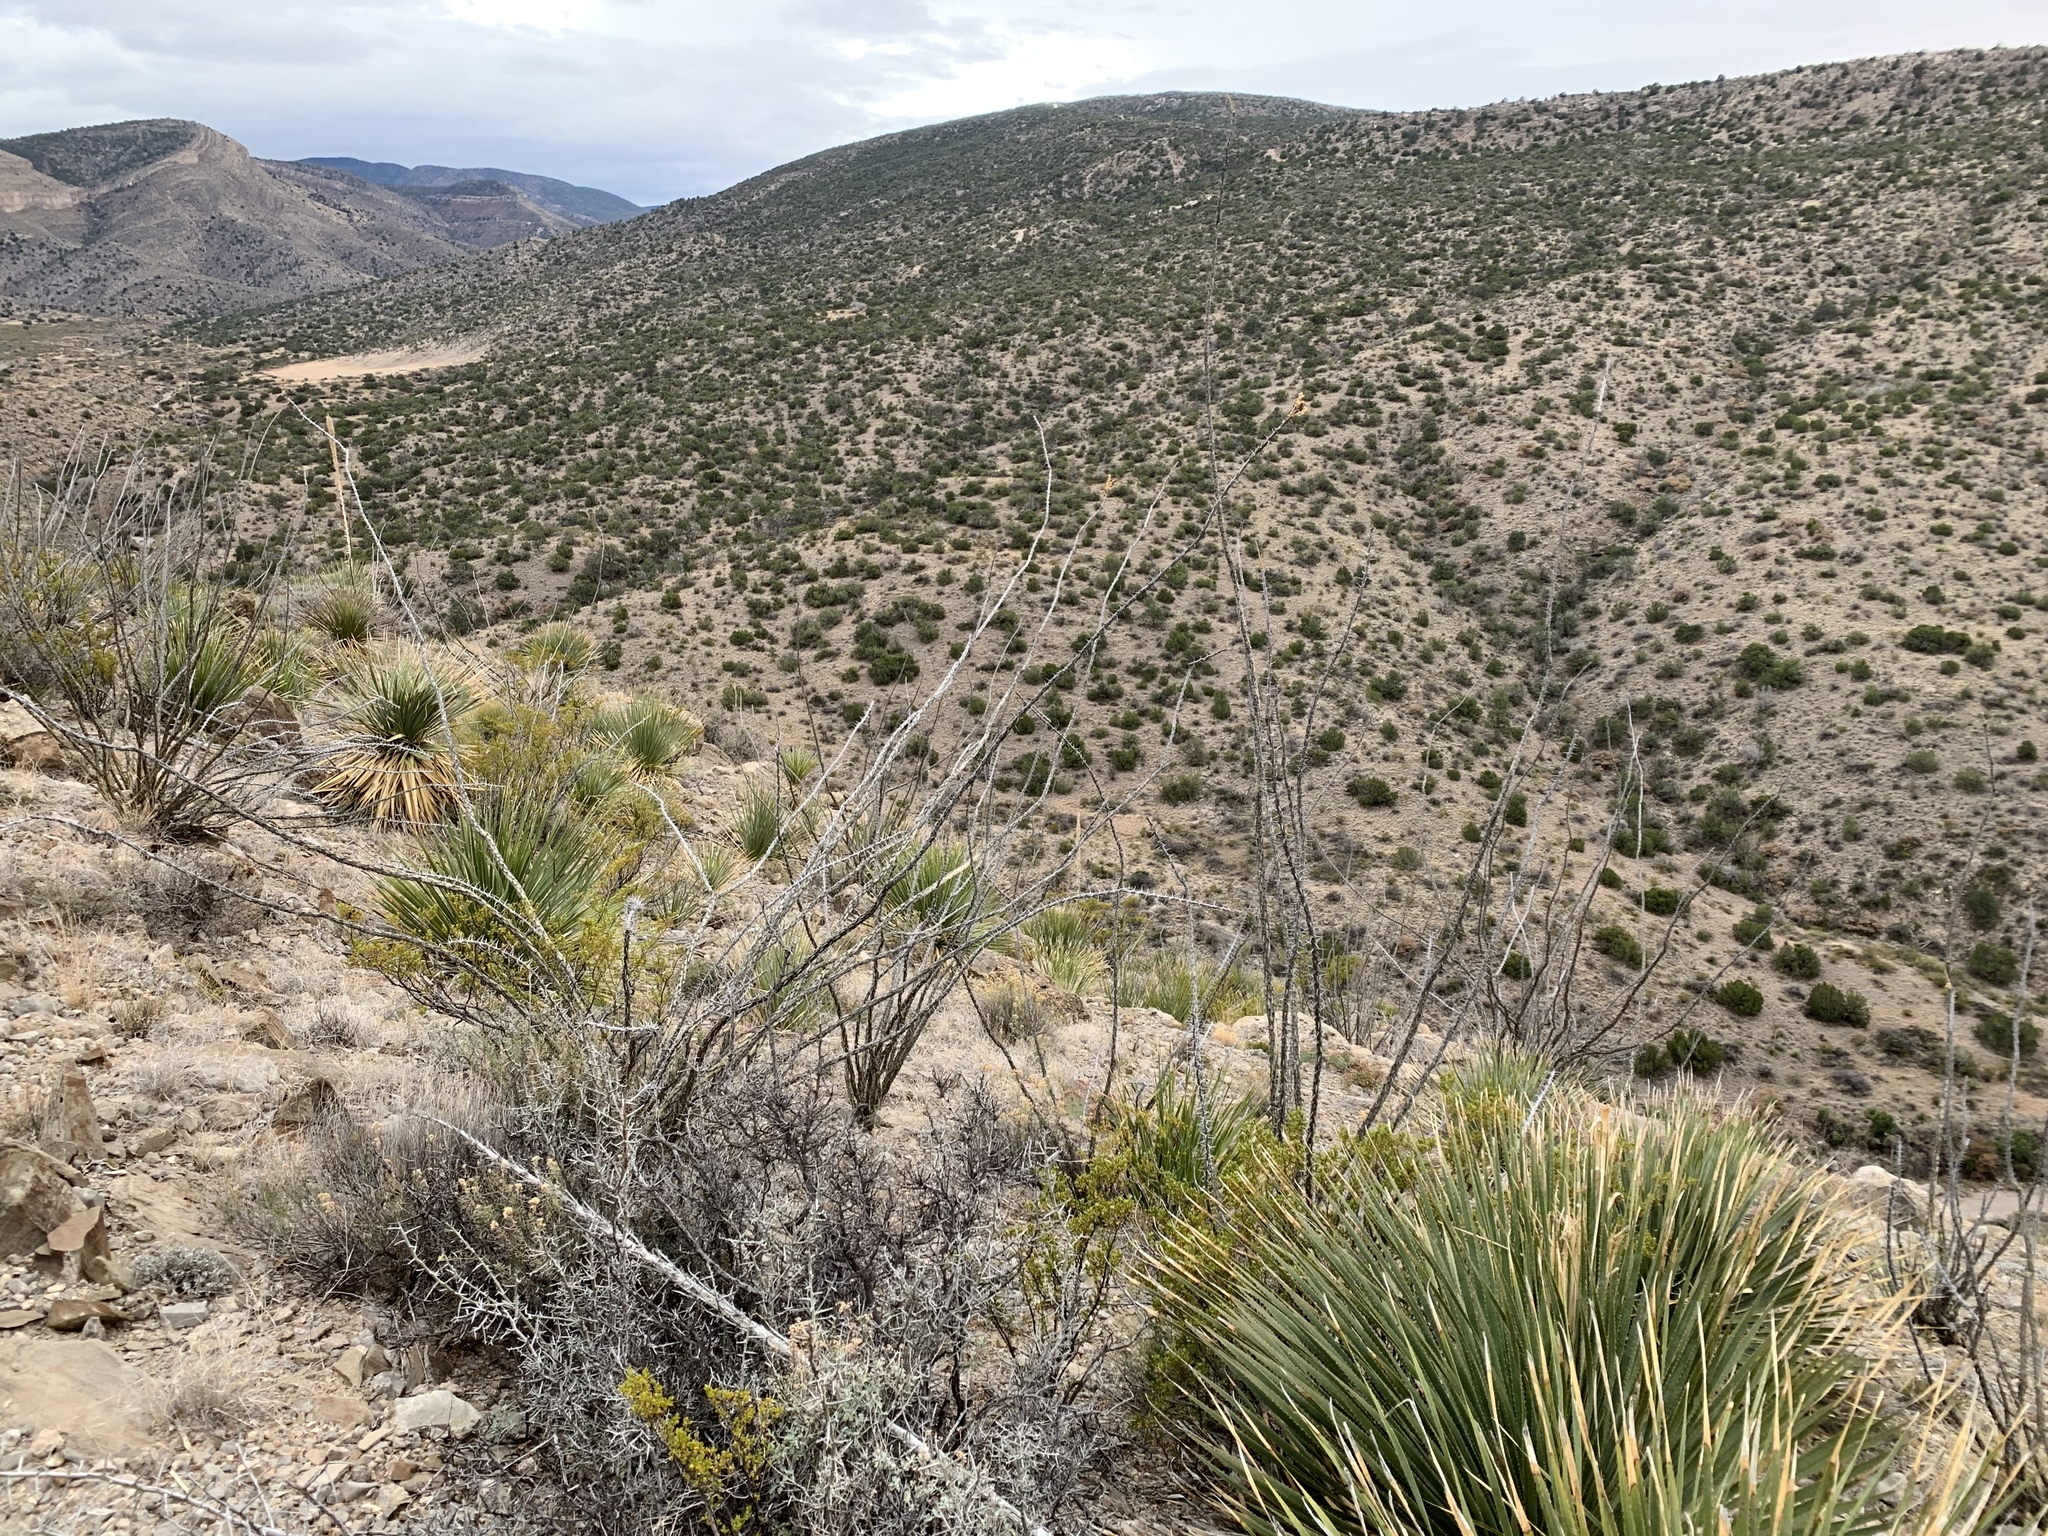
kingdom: Plantae
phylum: Tracheophyta
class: Magnoliopsida
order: Ericales
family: Fouquieriaceae
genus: Fouquieria
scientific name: Fouquieria splendens
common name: Vine-cactus
